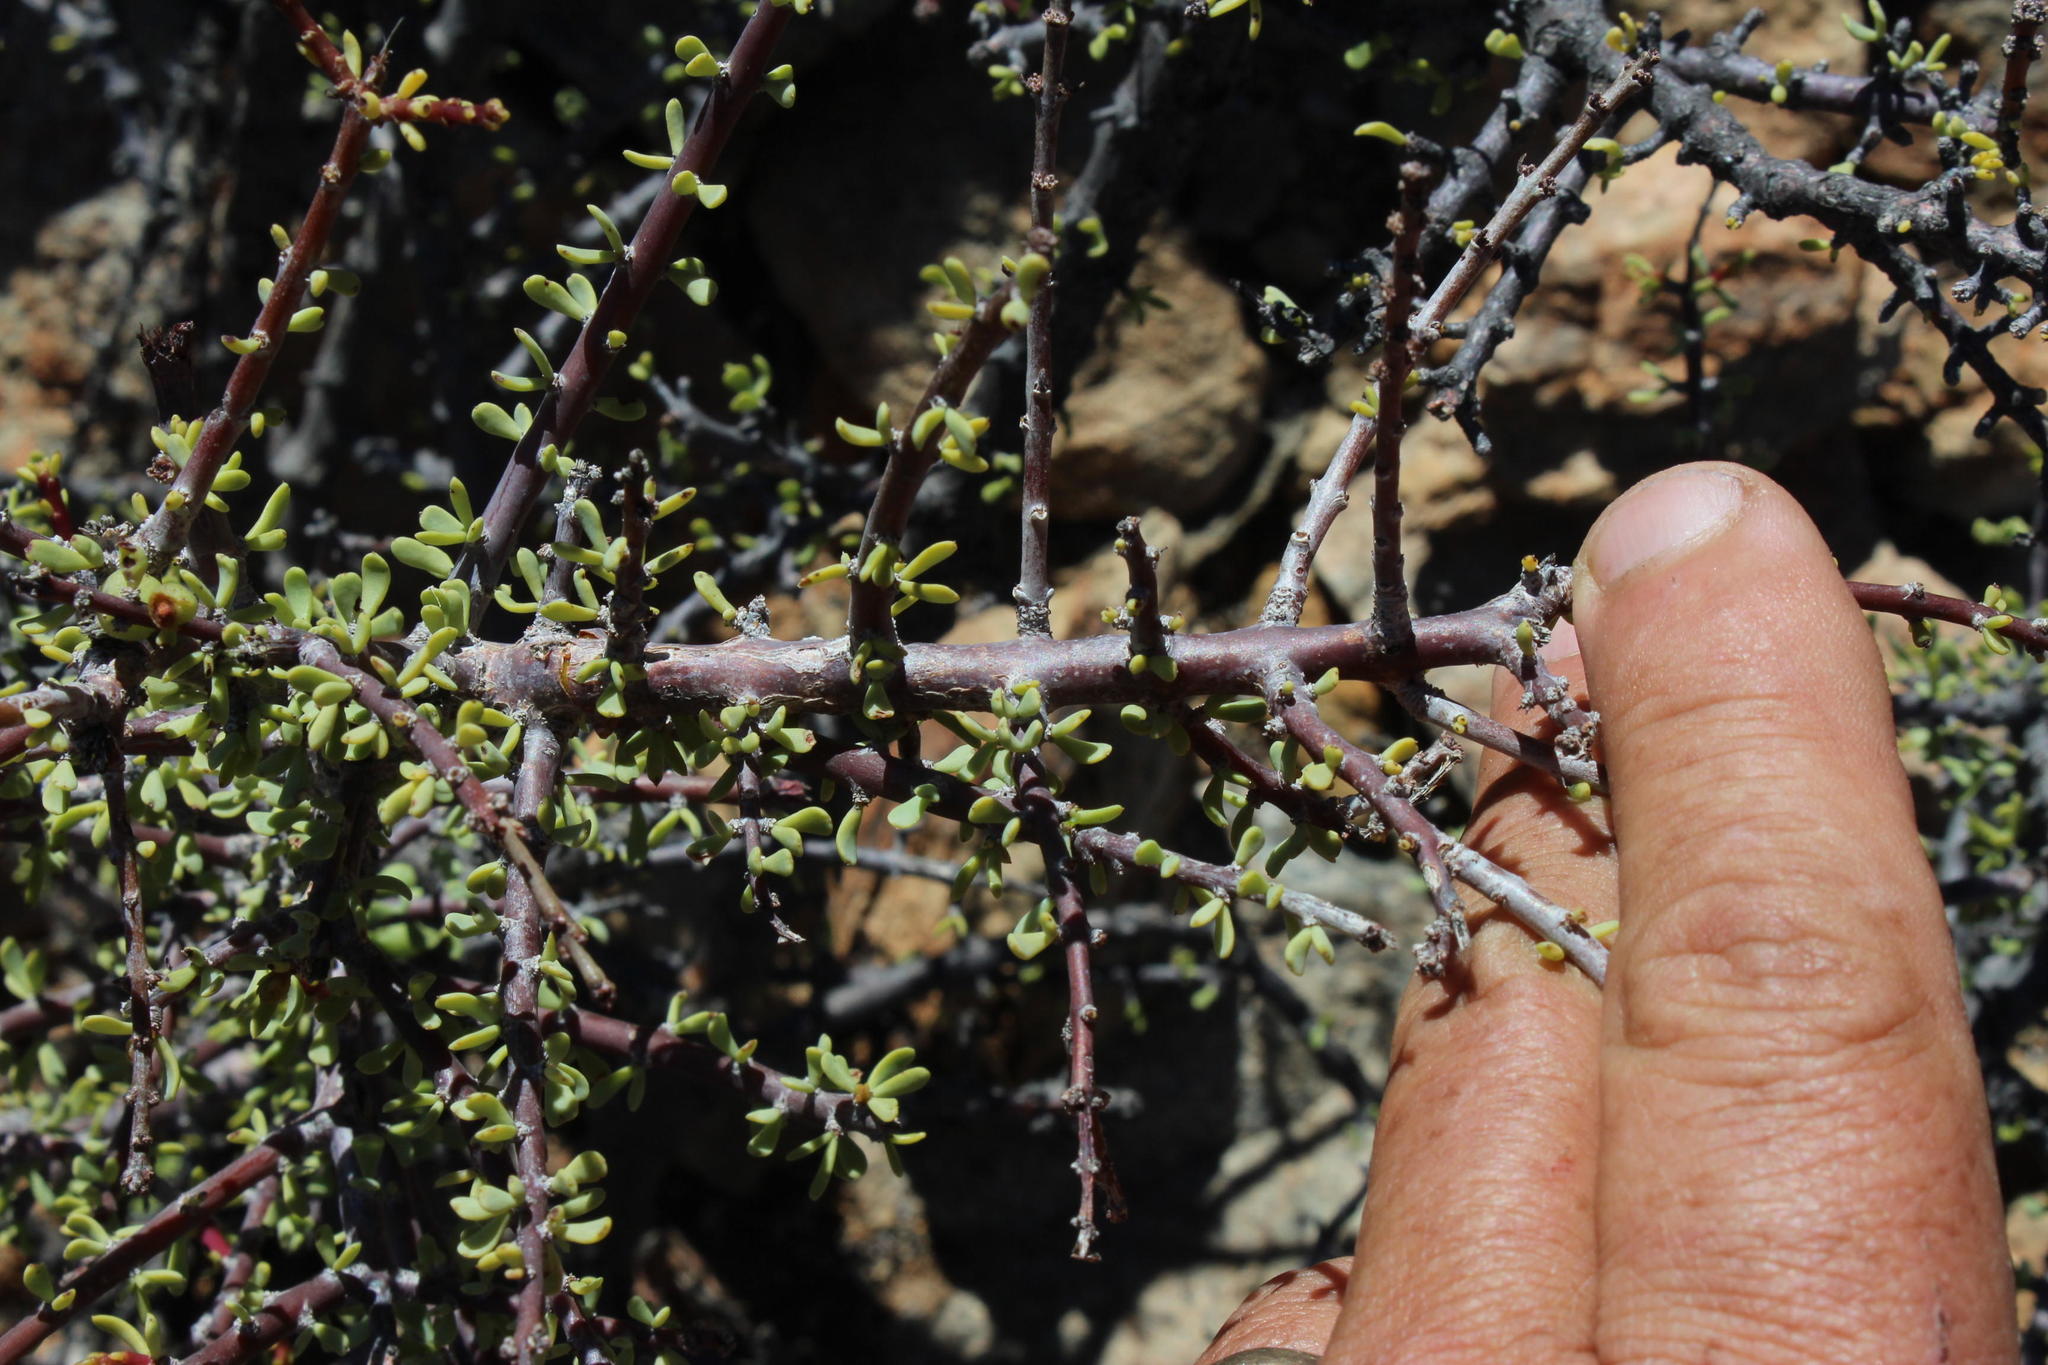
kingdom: Plantae
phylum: Tracheophyta
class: Magnoliopsida
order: Caryophyllales
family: Didiereaceae
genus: Portulacaria
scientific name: Portulacaria fruticulosa
